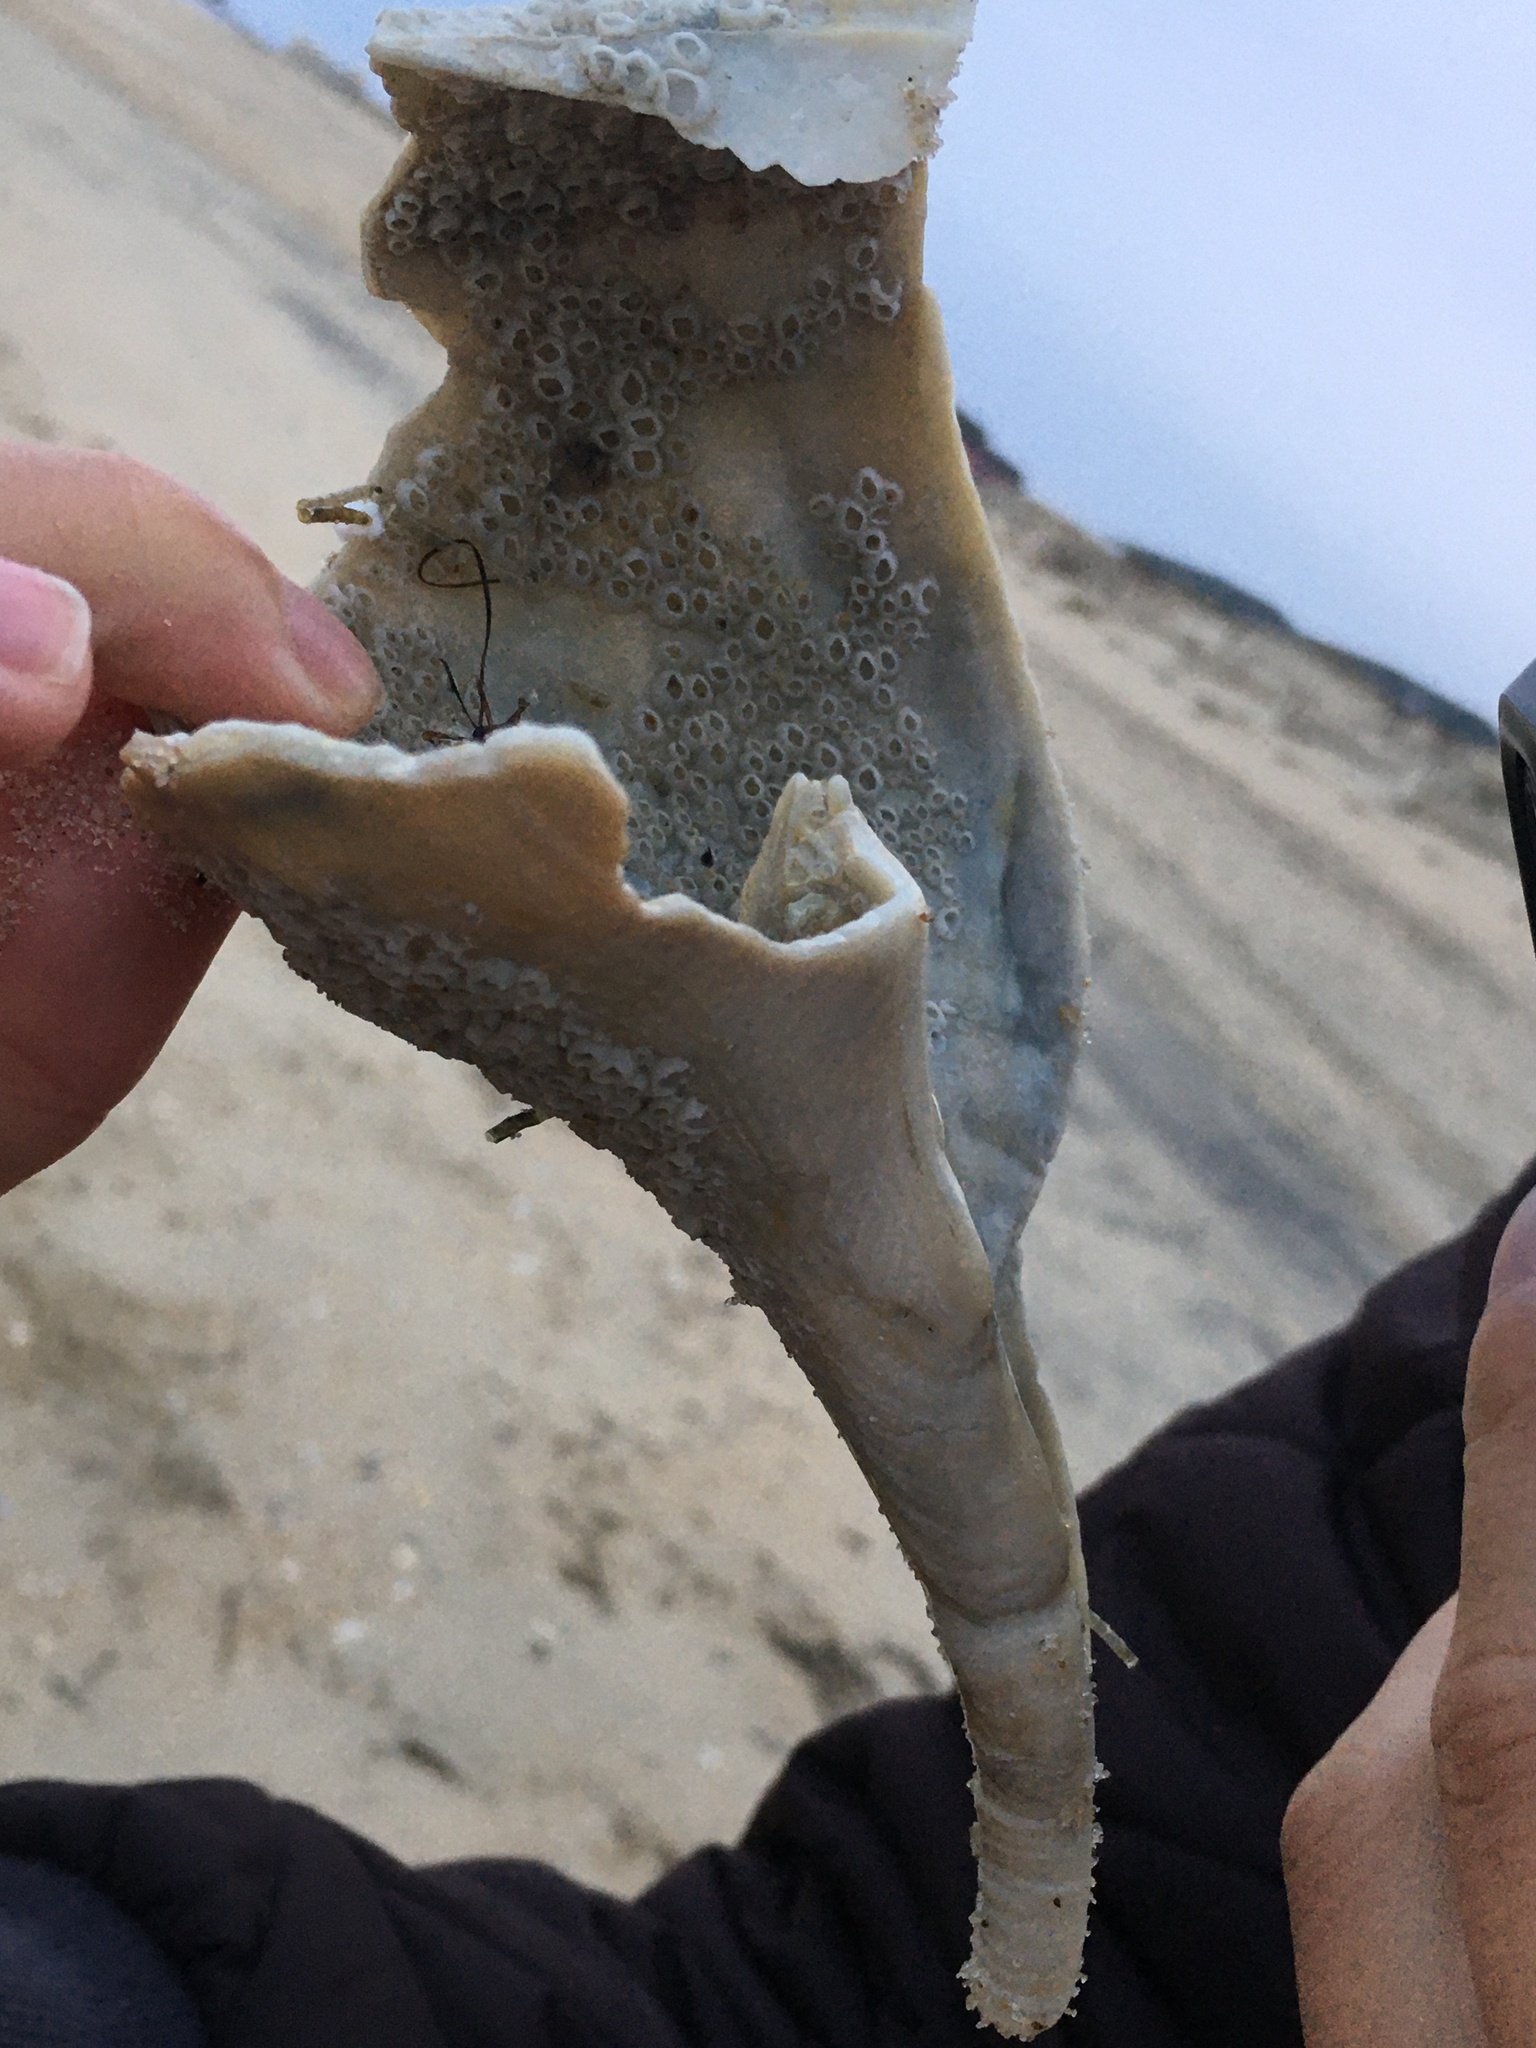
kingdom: Animalia
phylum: Mollusca
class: Gastropoda
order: Neogastropoda
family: Busyconidae
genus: Busycotypus
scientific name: Busycotypus canaliculatus
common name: Channeled whelk
